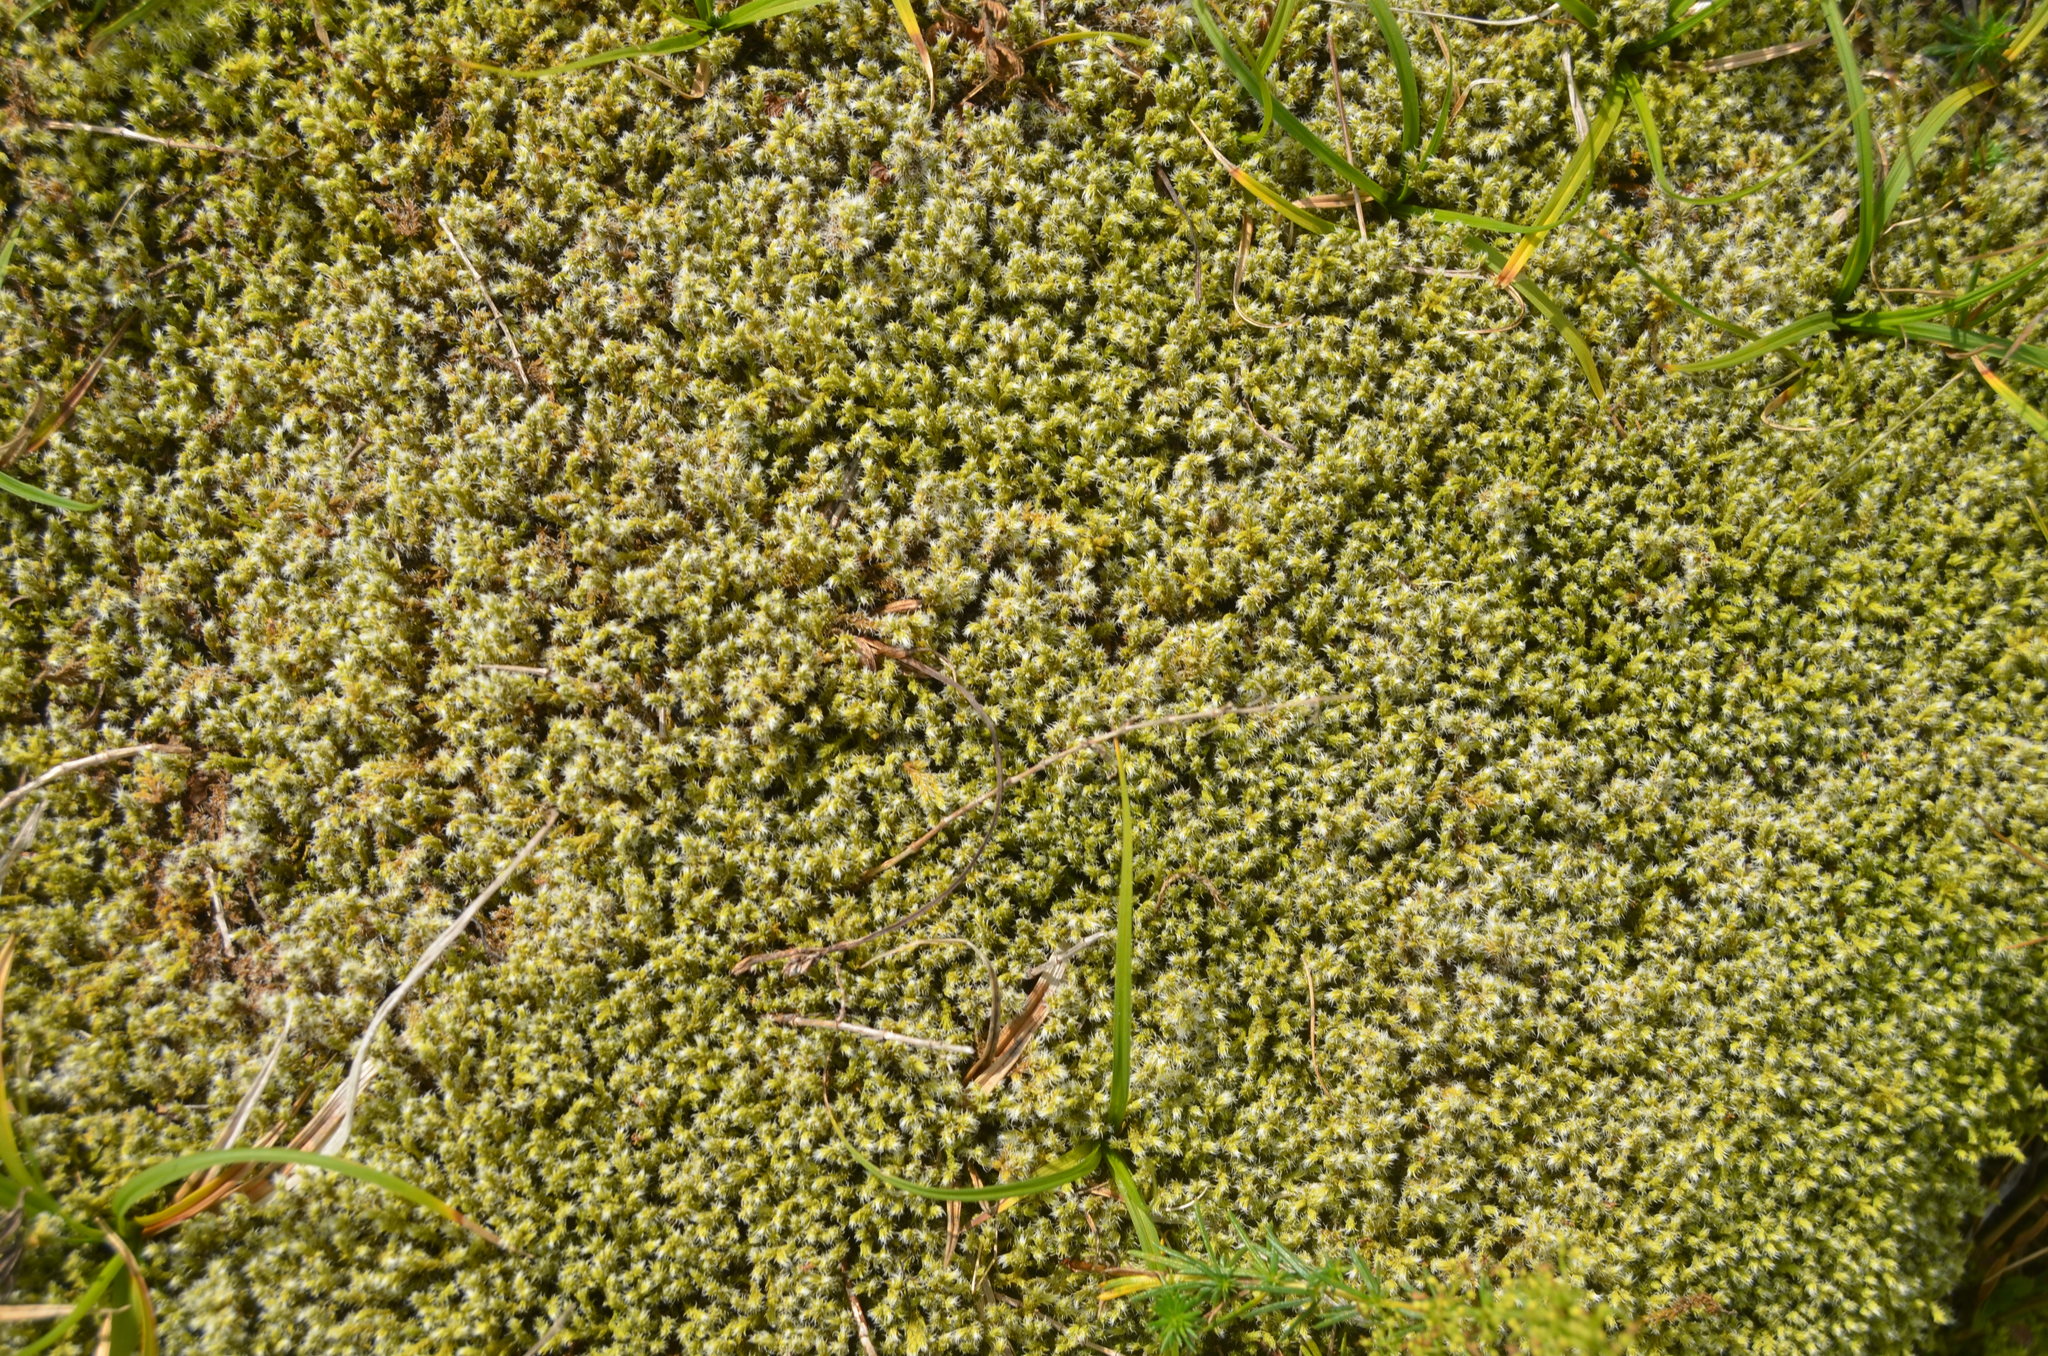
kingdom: Plantae
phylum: Bryophyta
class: Bryopsida
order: Grimmiales
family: Grimmiaceae
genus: Niphotrichum
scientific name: Niphotrichum canescens
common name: Hoary fringe-moss
